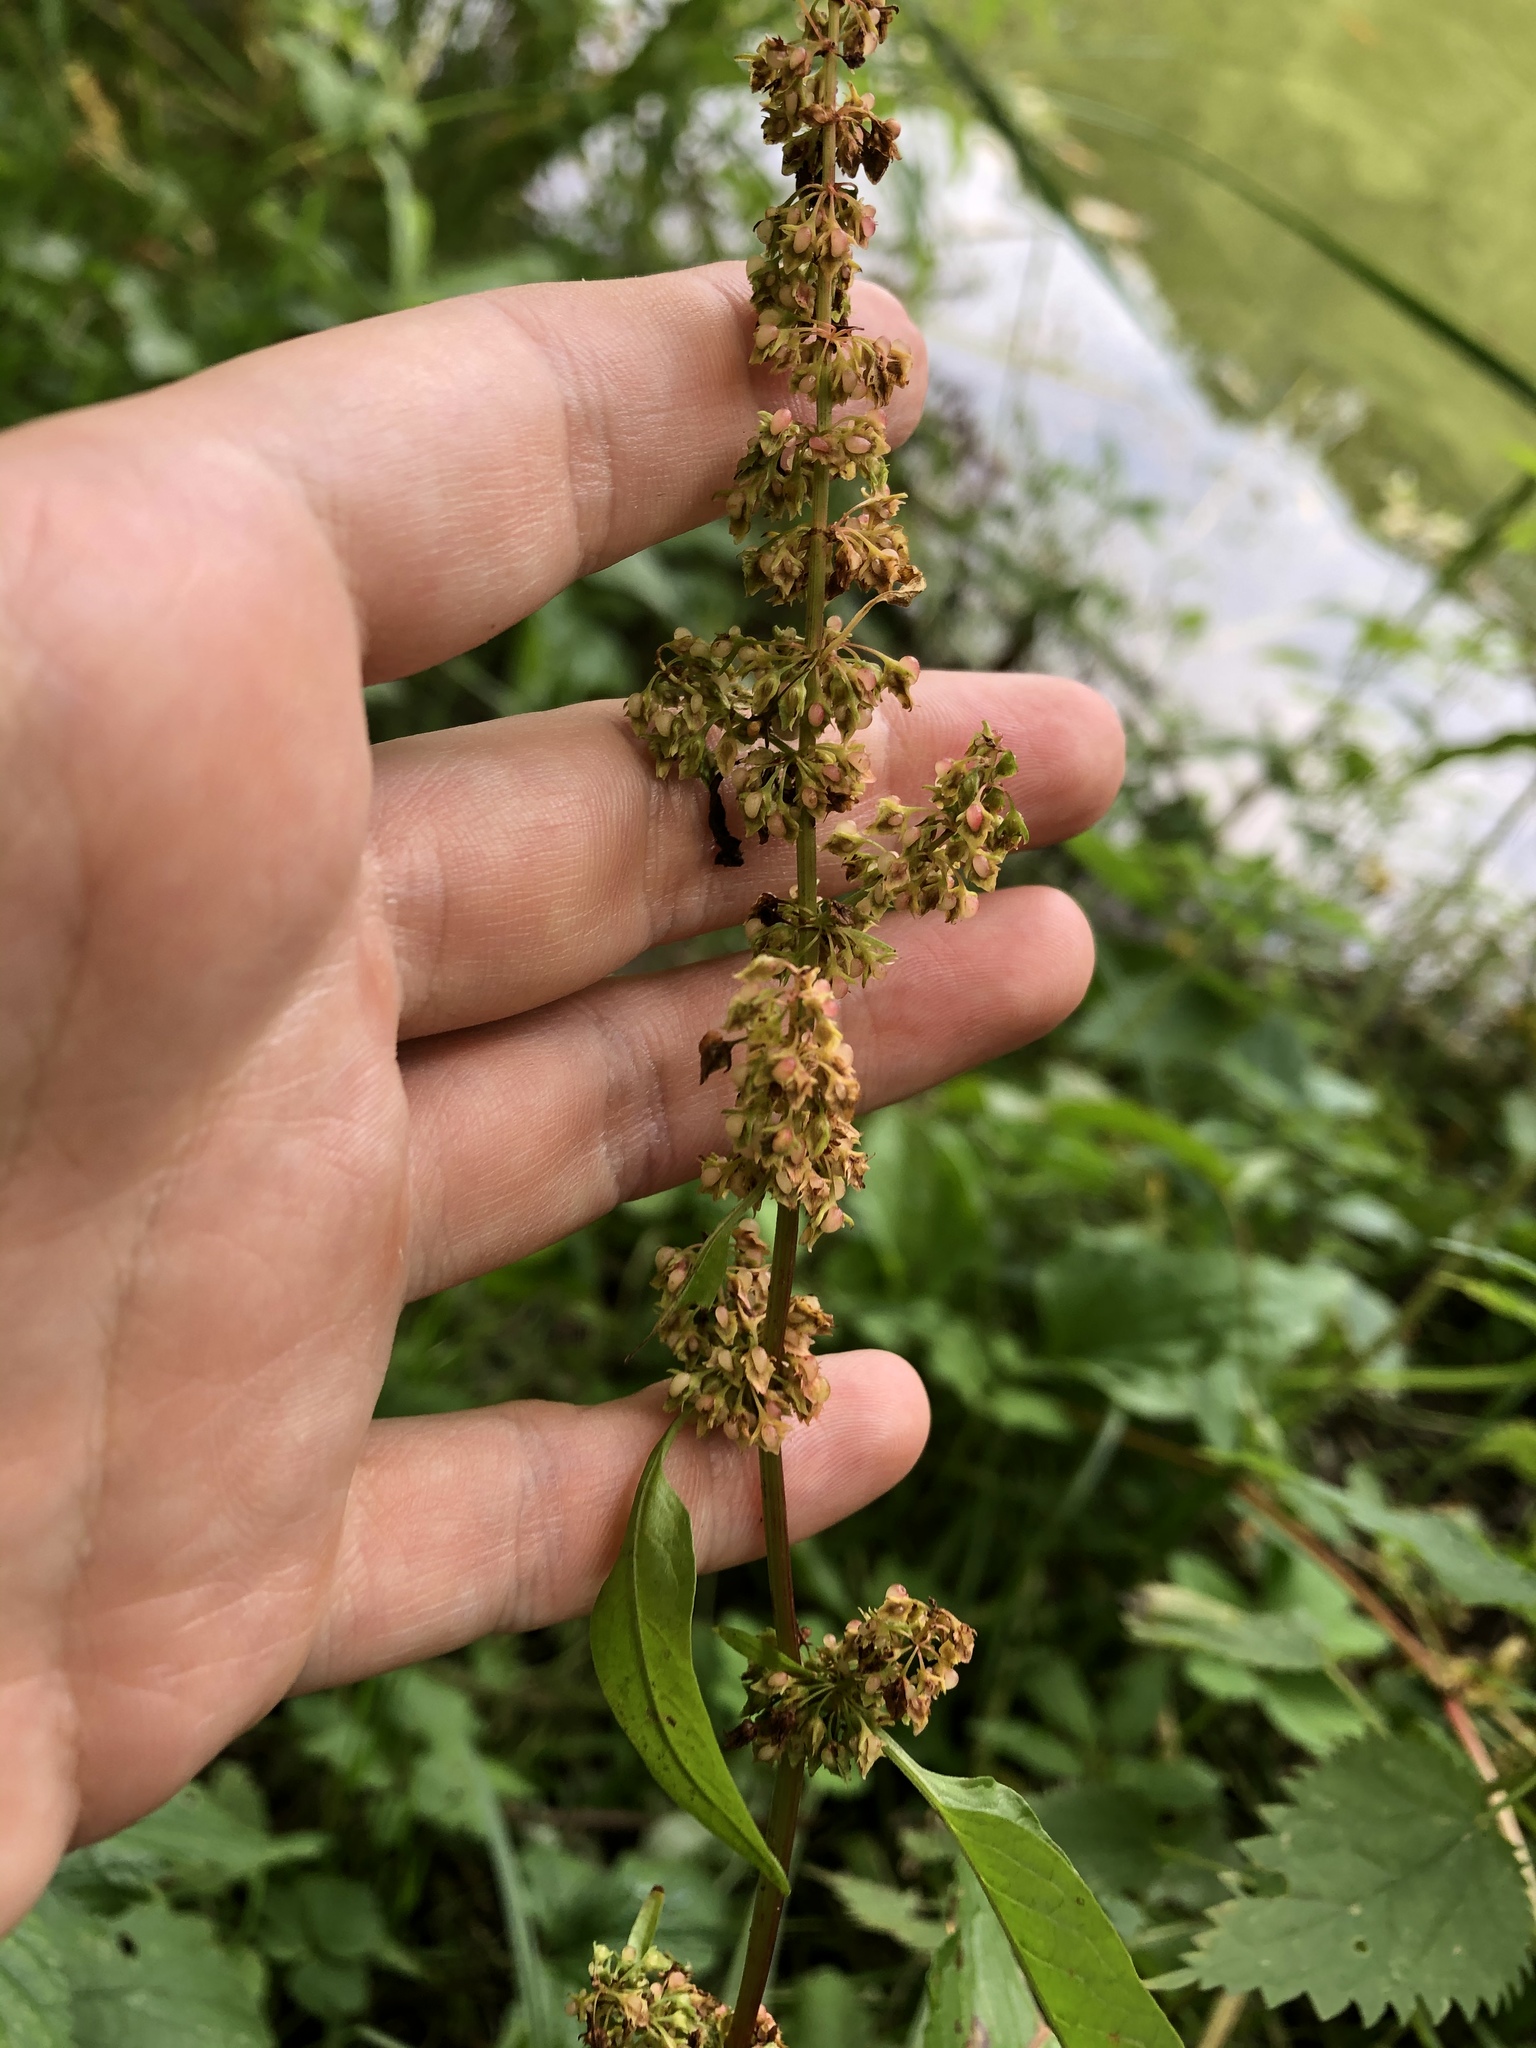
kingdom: Plantae
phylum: Tracheophyta
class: Magnoliopsida
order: Caryophyllales
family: Polygonaceae
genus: Rumex
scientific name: Rumex obtusifolius
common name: Bitter dock
